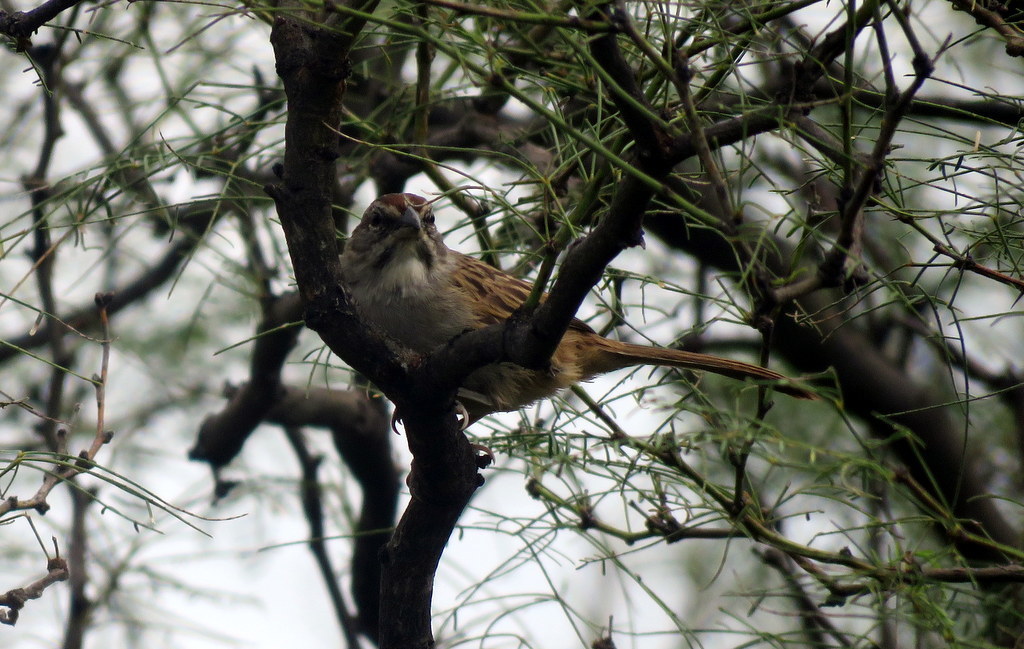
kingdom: Animalia
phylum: Chordata
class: Aves
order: Passeriformes
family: Passerellidae
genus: Rhynchospiza
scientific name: Rhynchospiza strigiceps
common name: Stripe-capped sparrow
